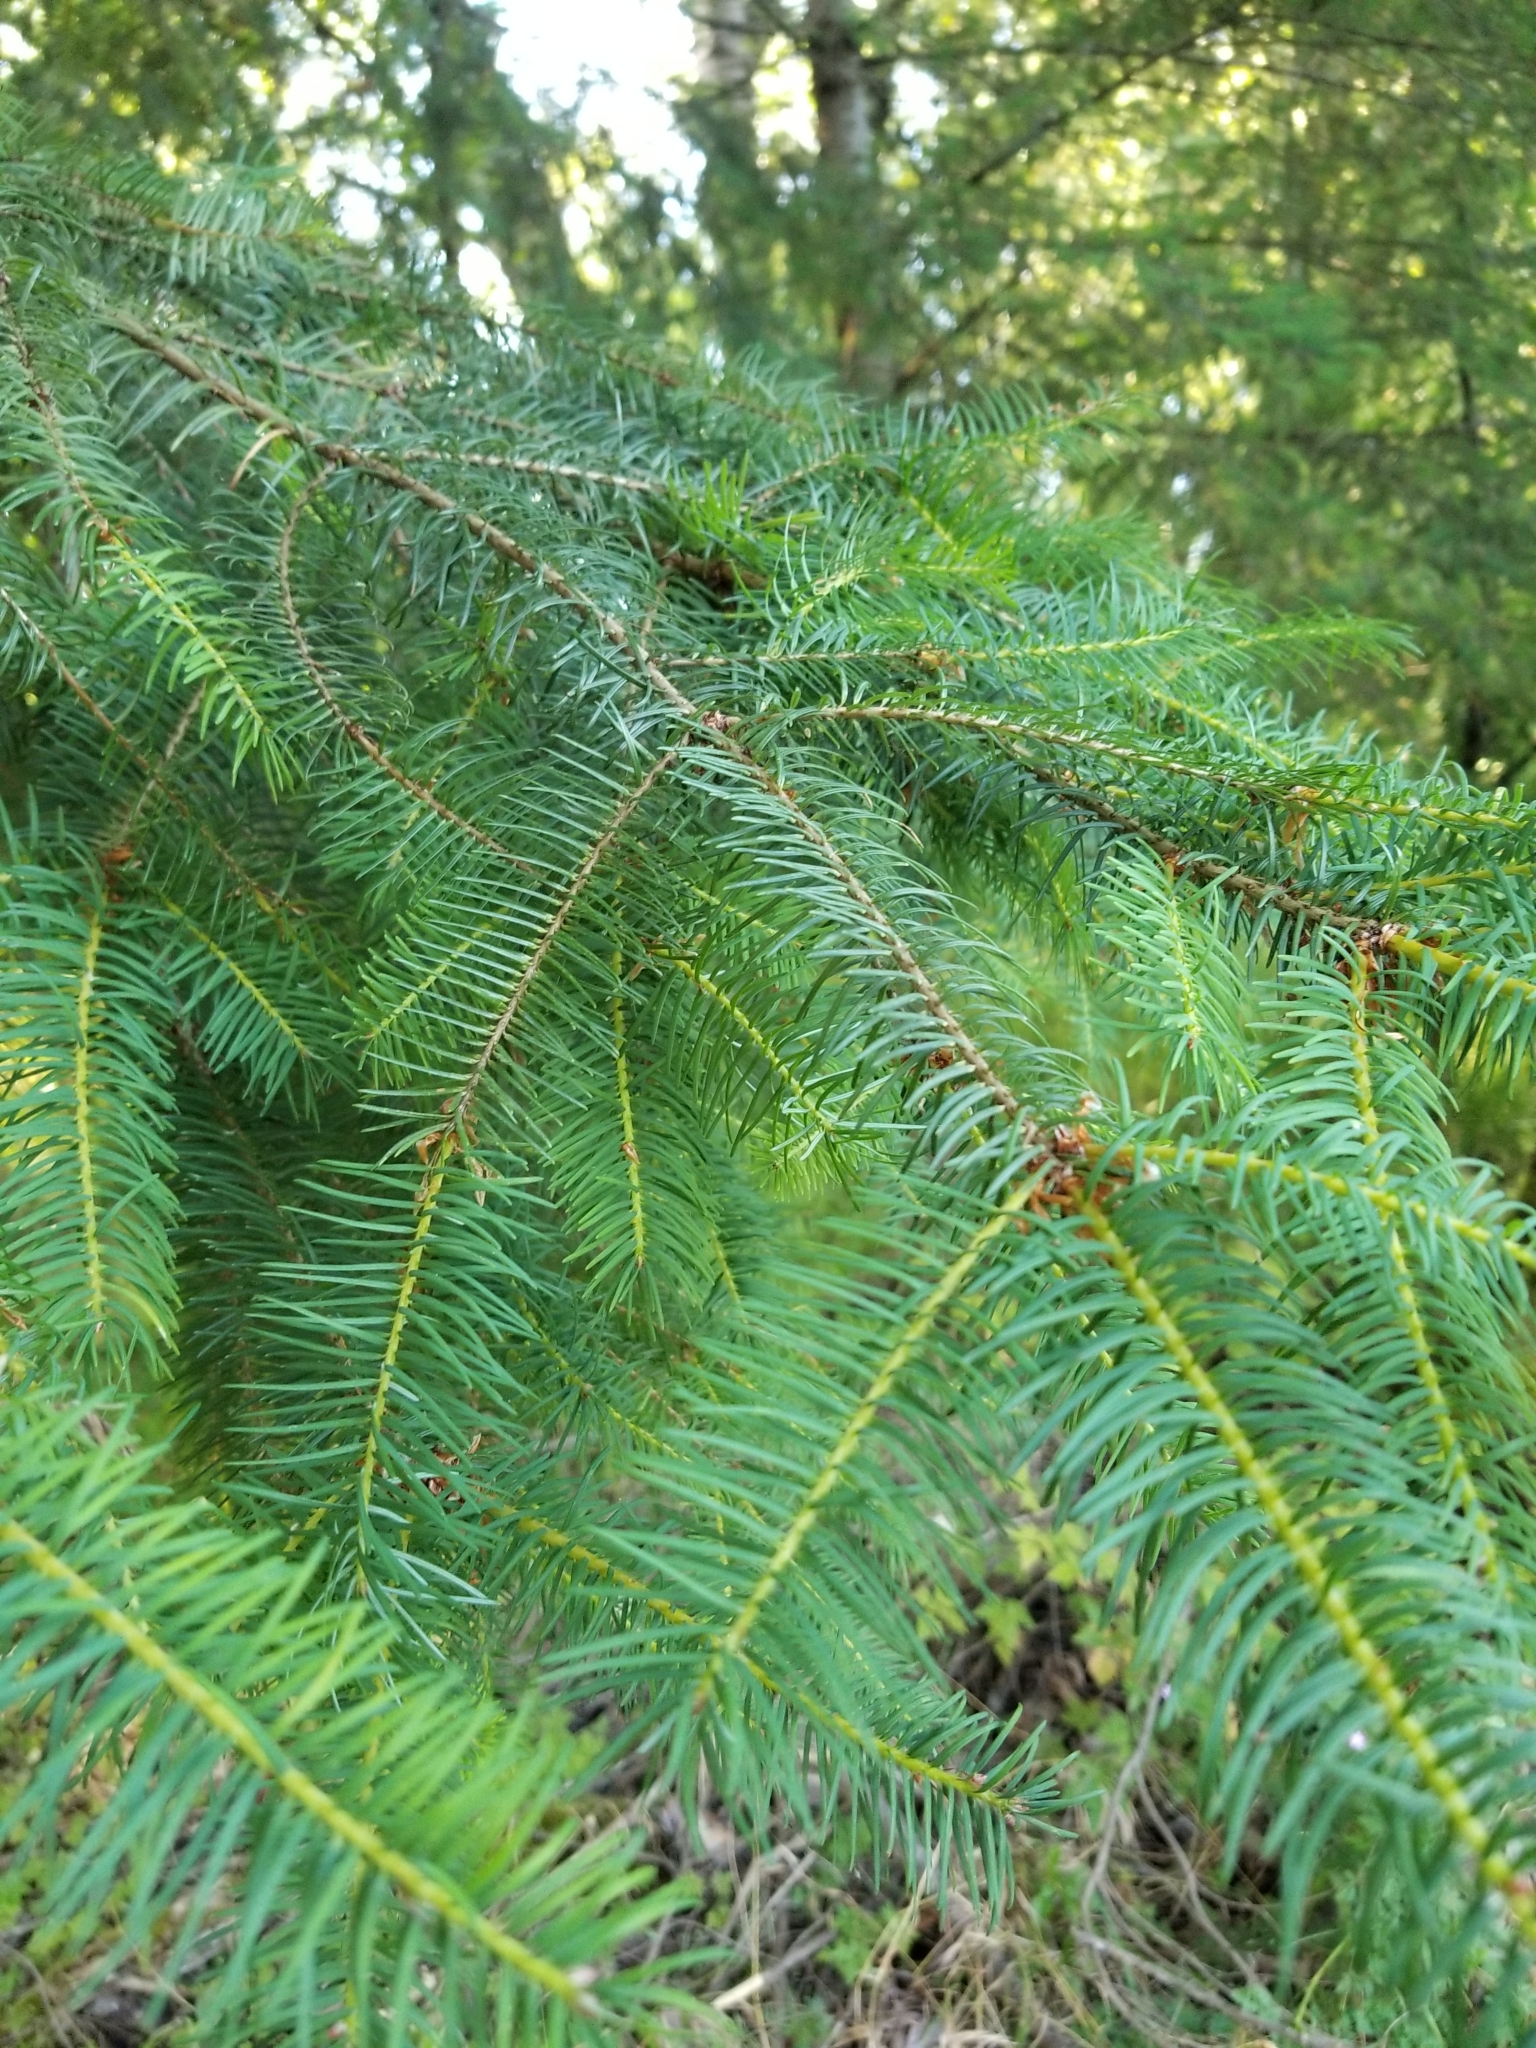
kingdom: Plantae
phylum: Tracheophyta
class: Pinopsida
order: Pinales
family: Pinaceae
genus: Pseudotsuga
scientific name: Pseudotsuga menziesii
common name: Douglas fir
